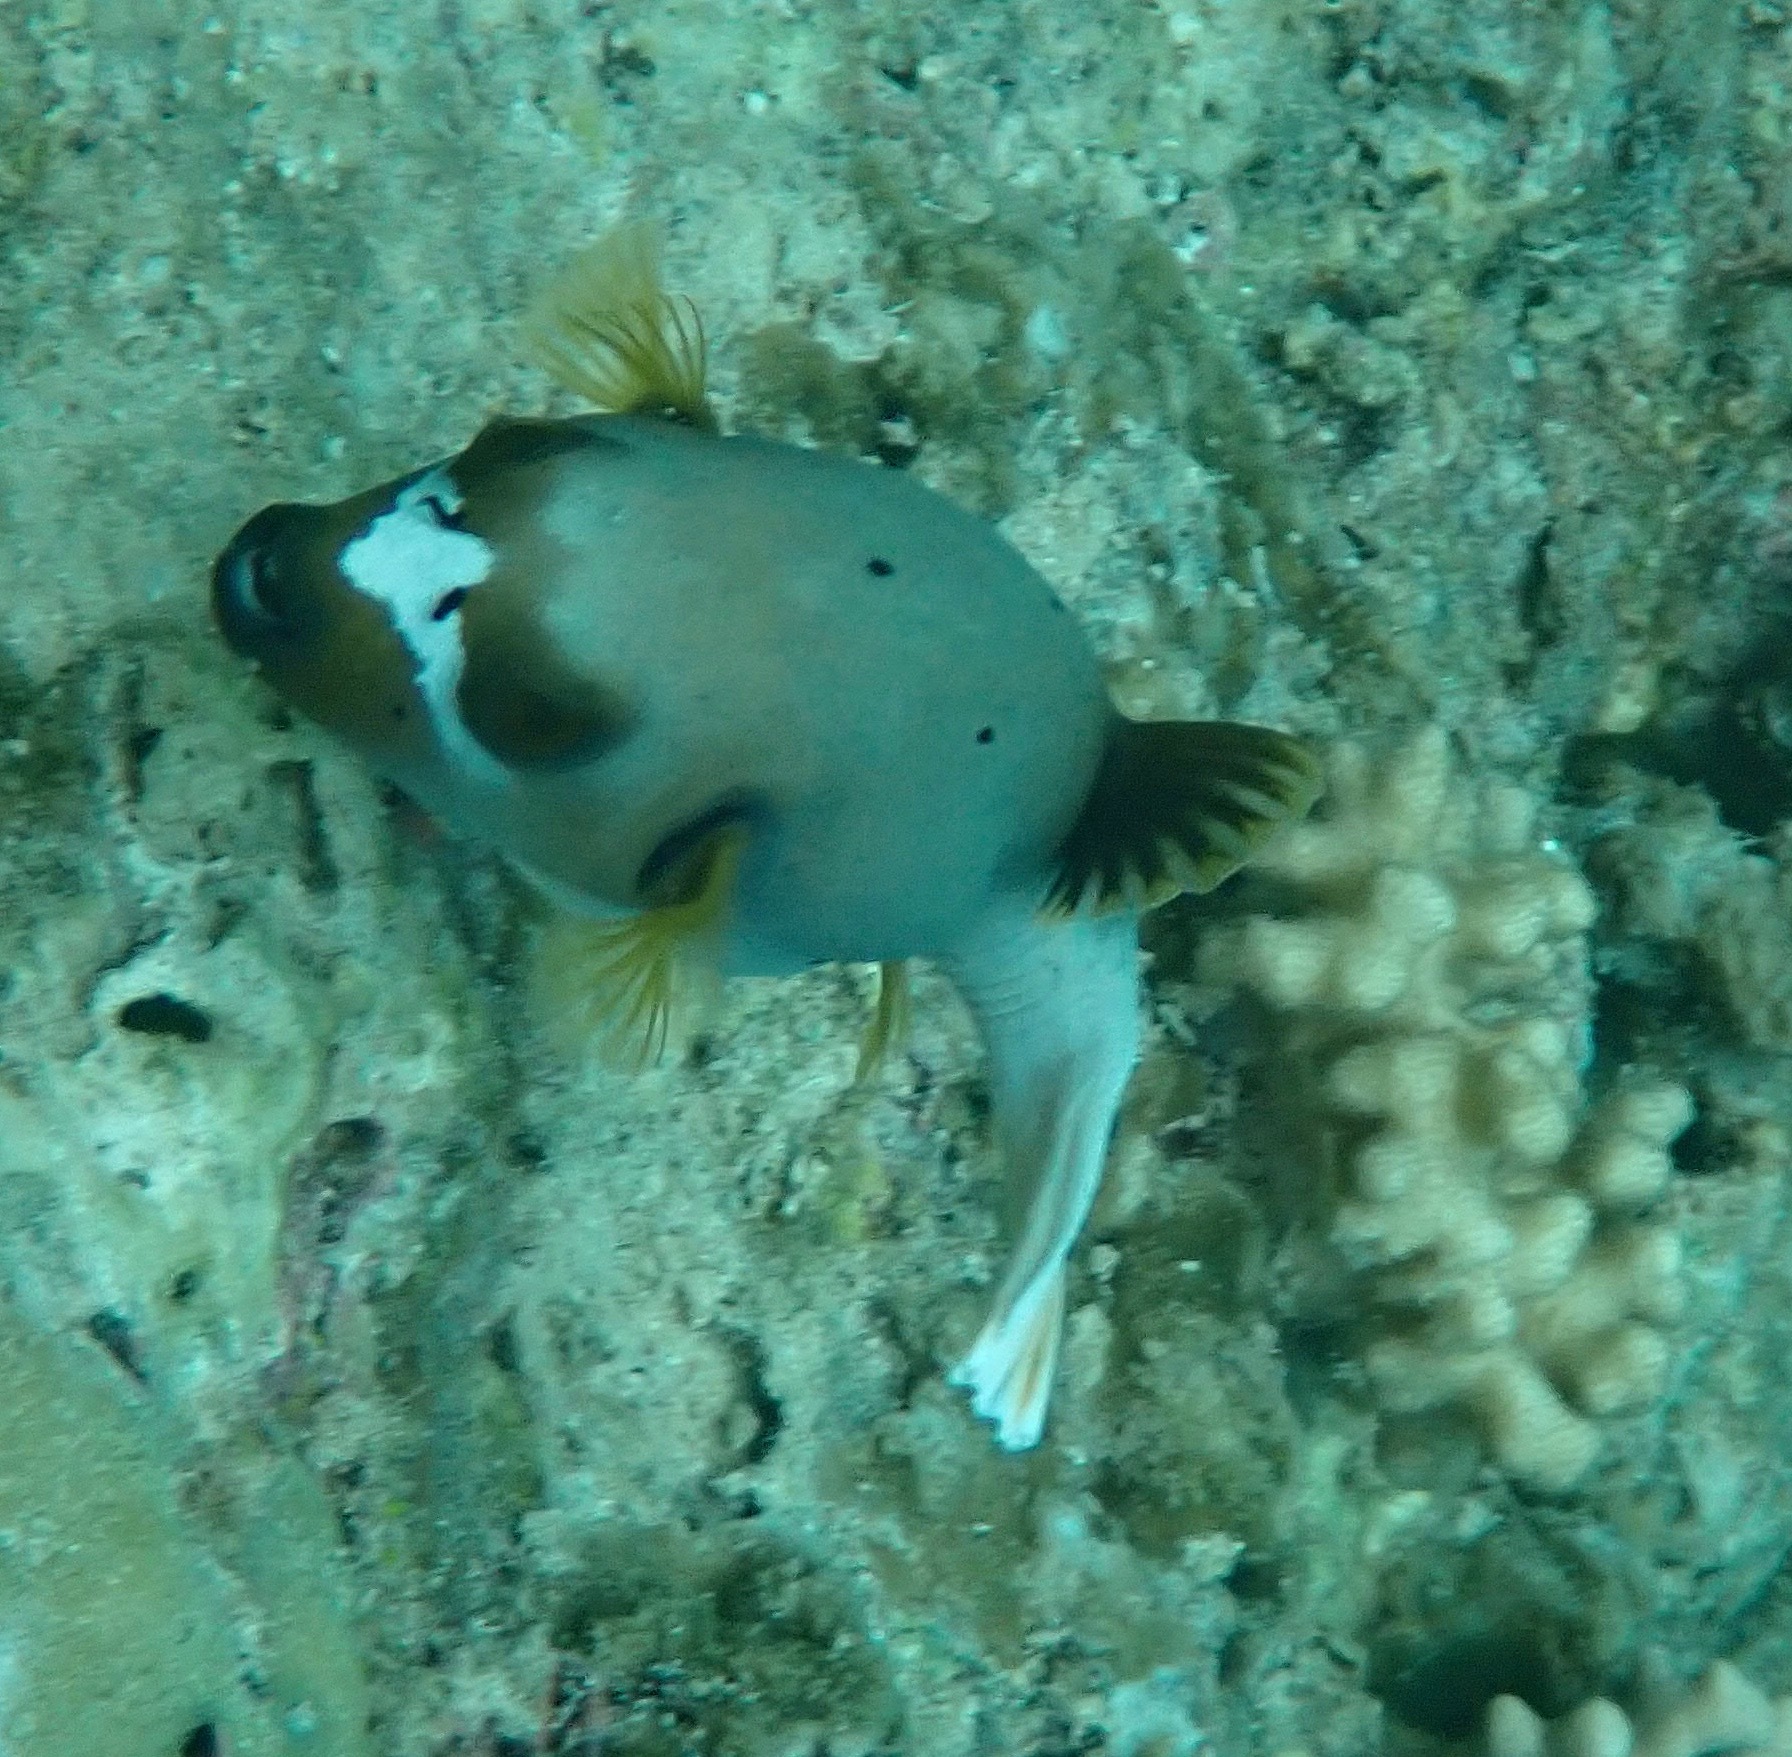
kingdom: Animalia
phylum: Chordata
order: Tetraodontiformes
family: Tetraodontidae
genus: Arothron
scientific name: Arothron nigropunctatus
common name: Black spotted blow fish
